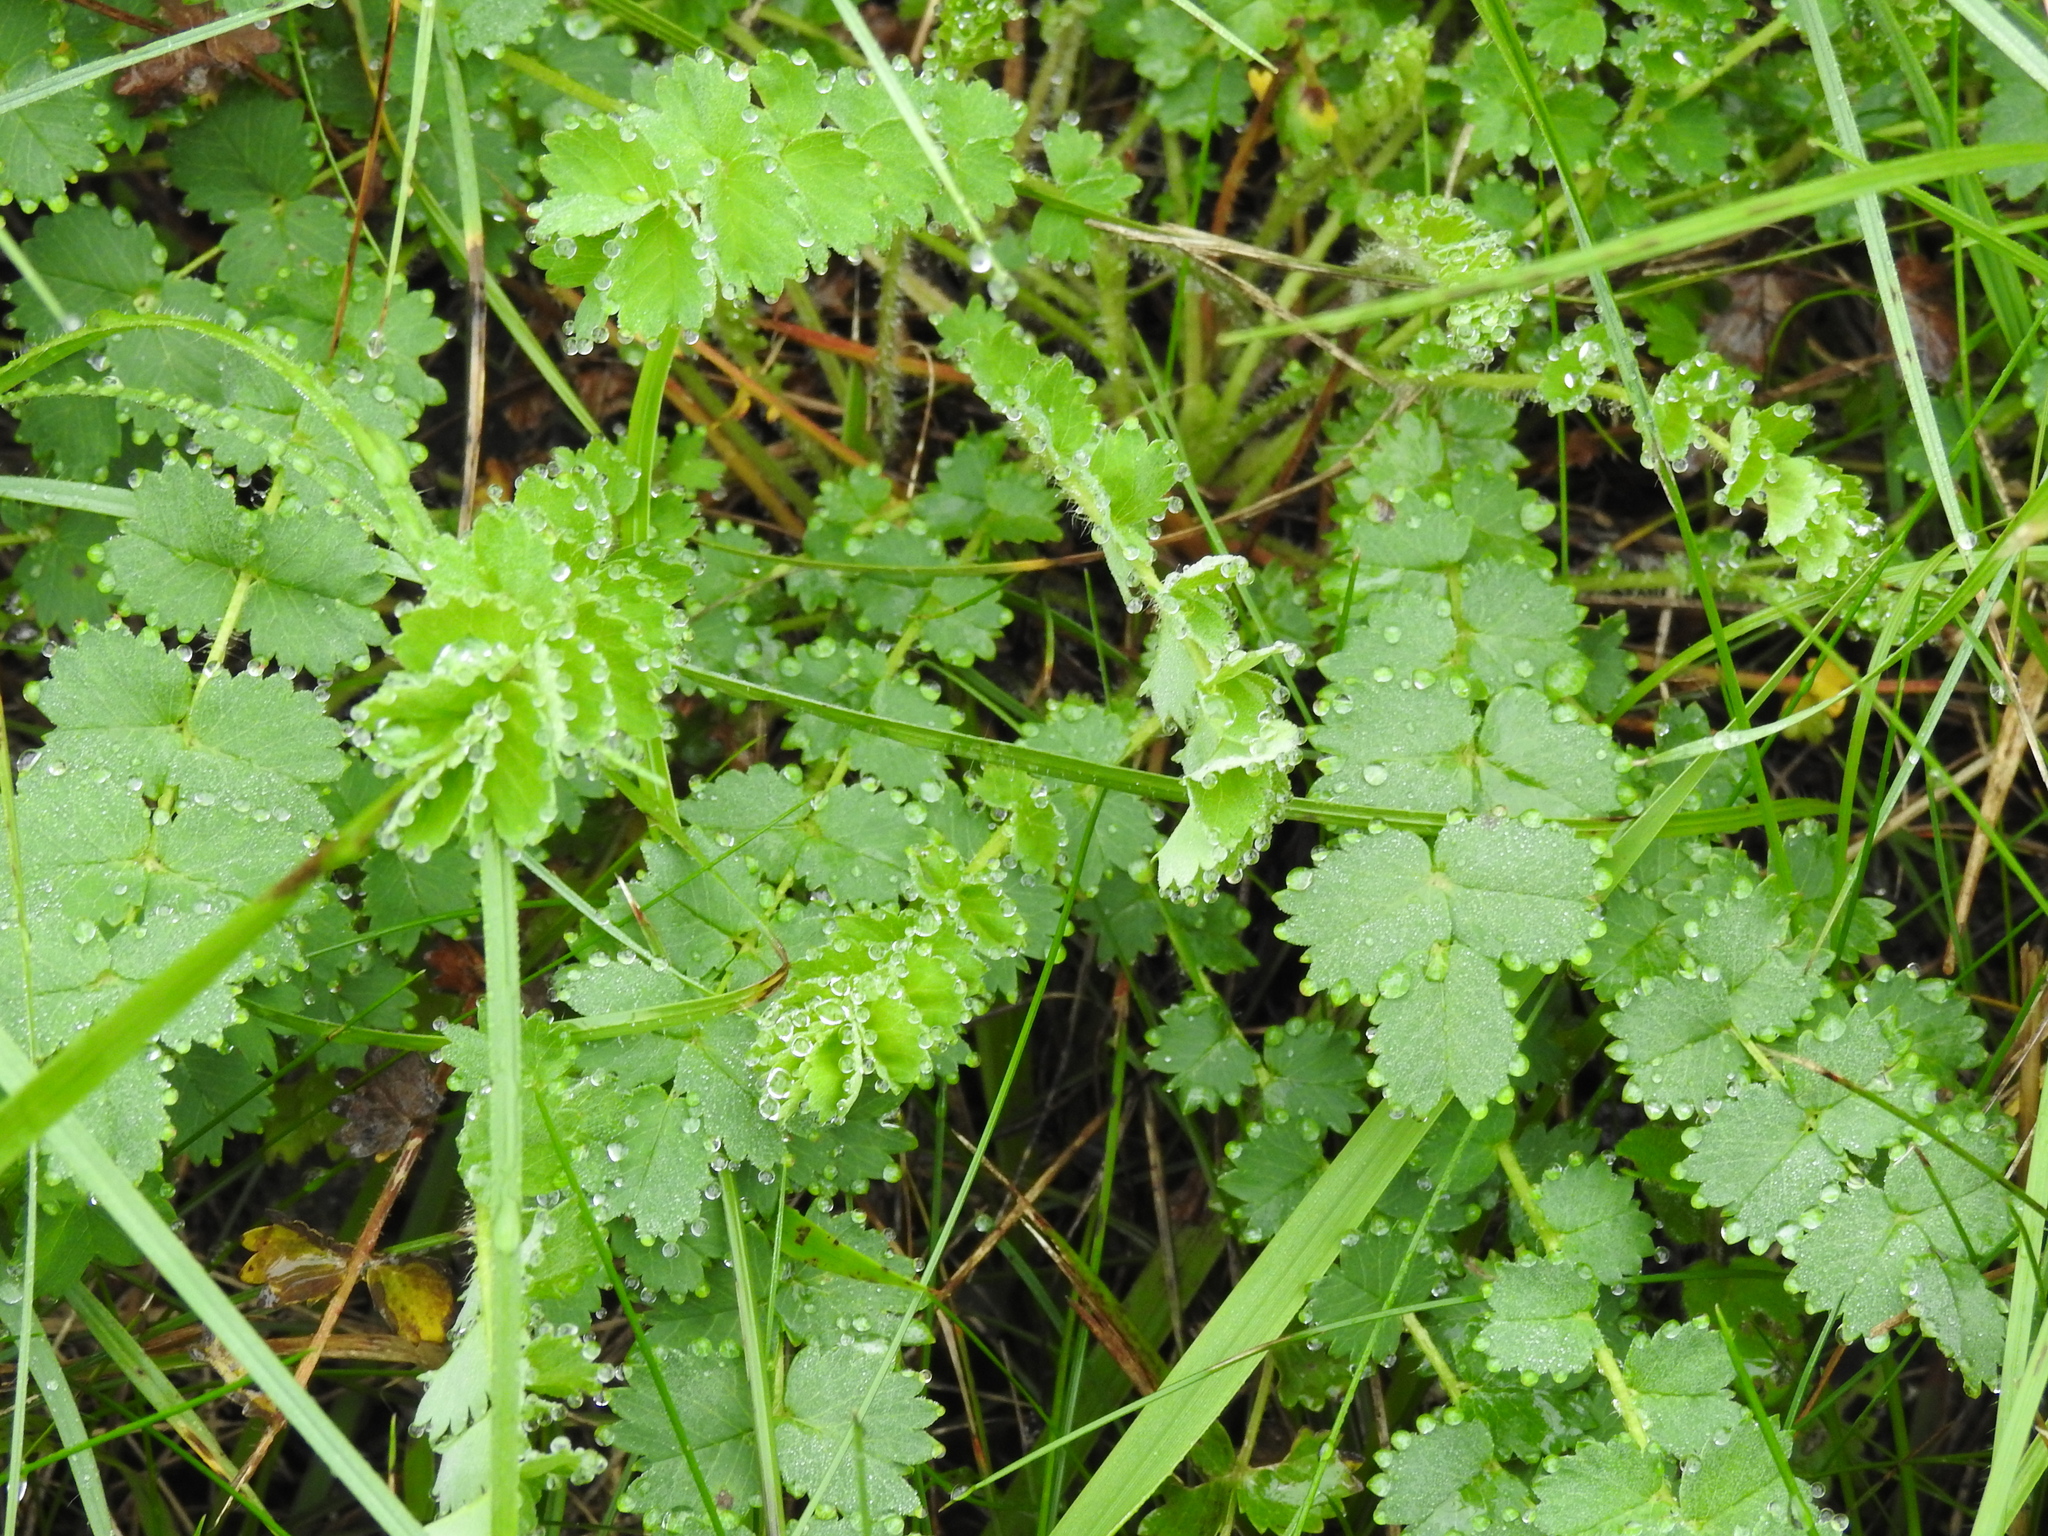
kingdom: Plantae
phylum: Tracheophyta
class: Magnoliopsida
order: Rosales
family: Rosaceae
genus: Poterium
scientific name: Poterium sanguisorba
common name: Salad burnet
